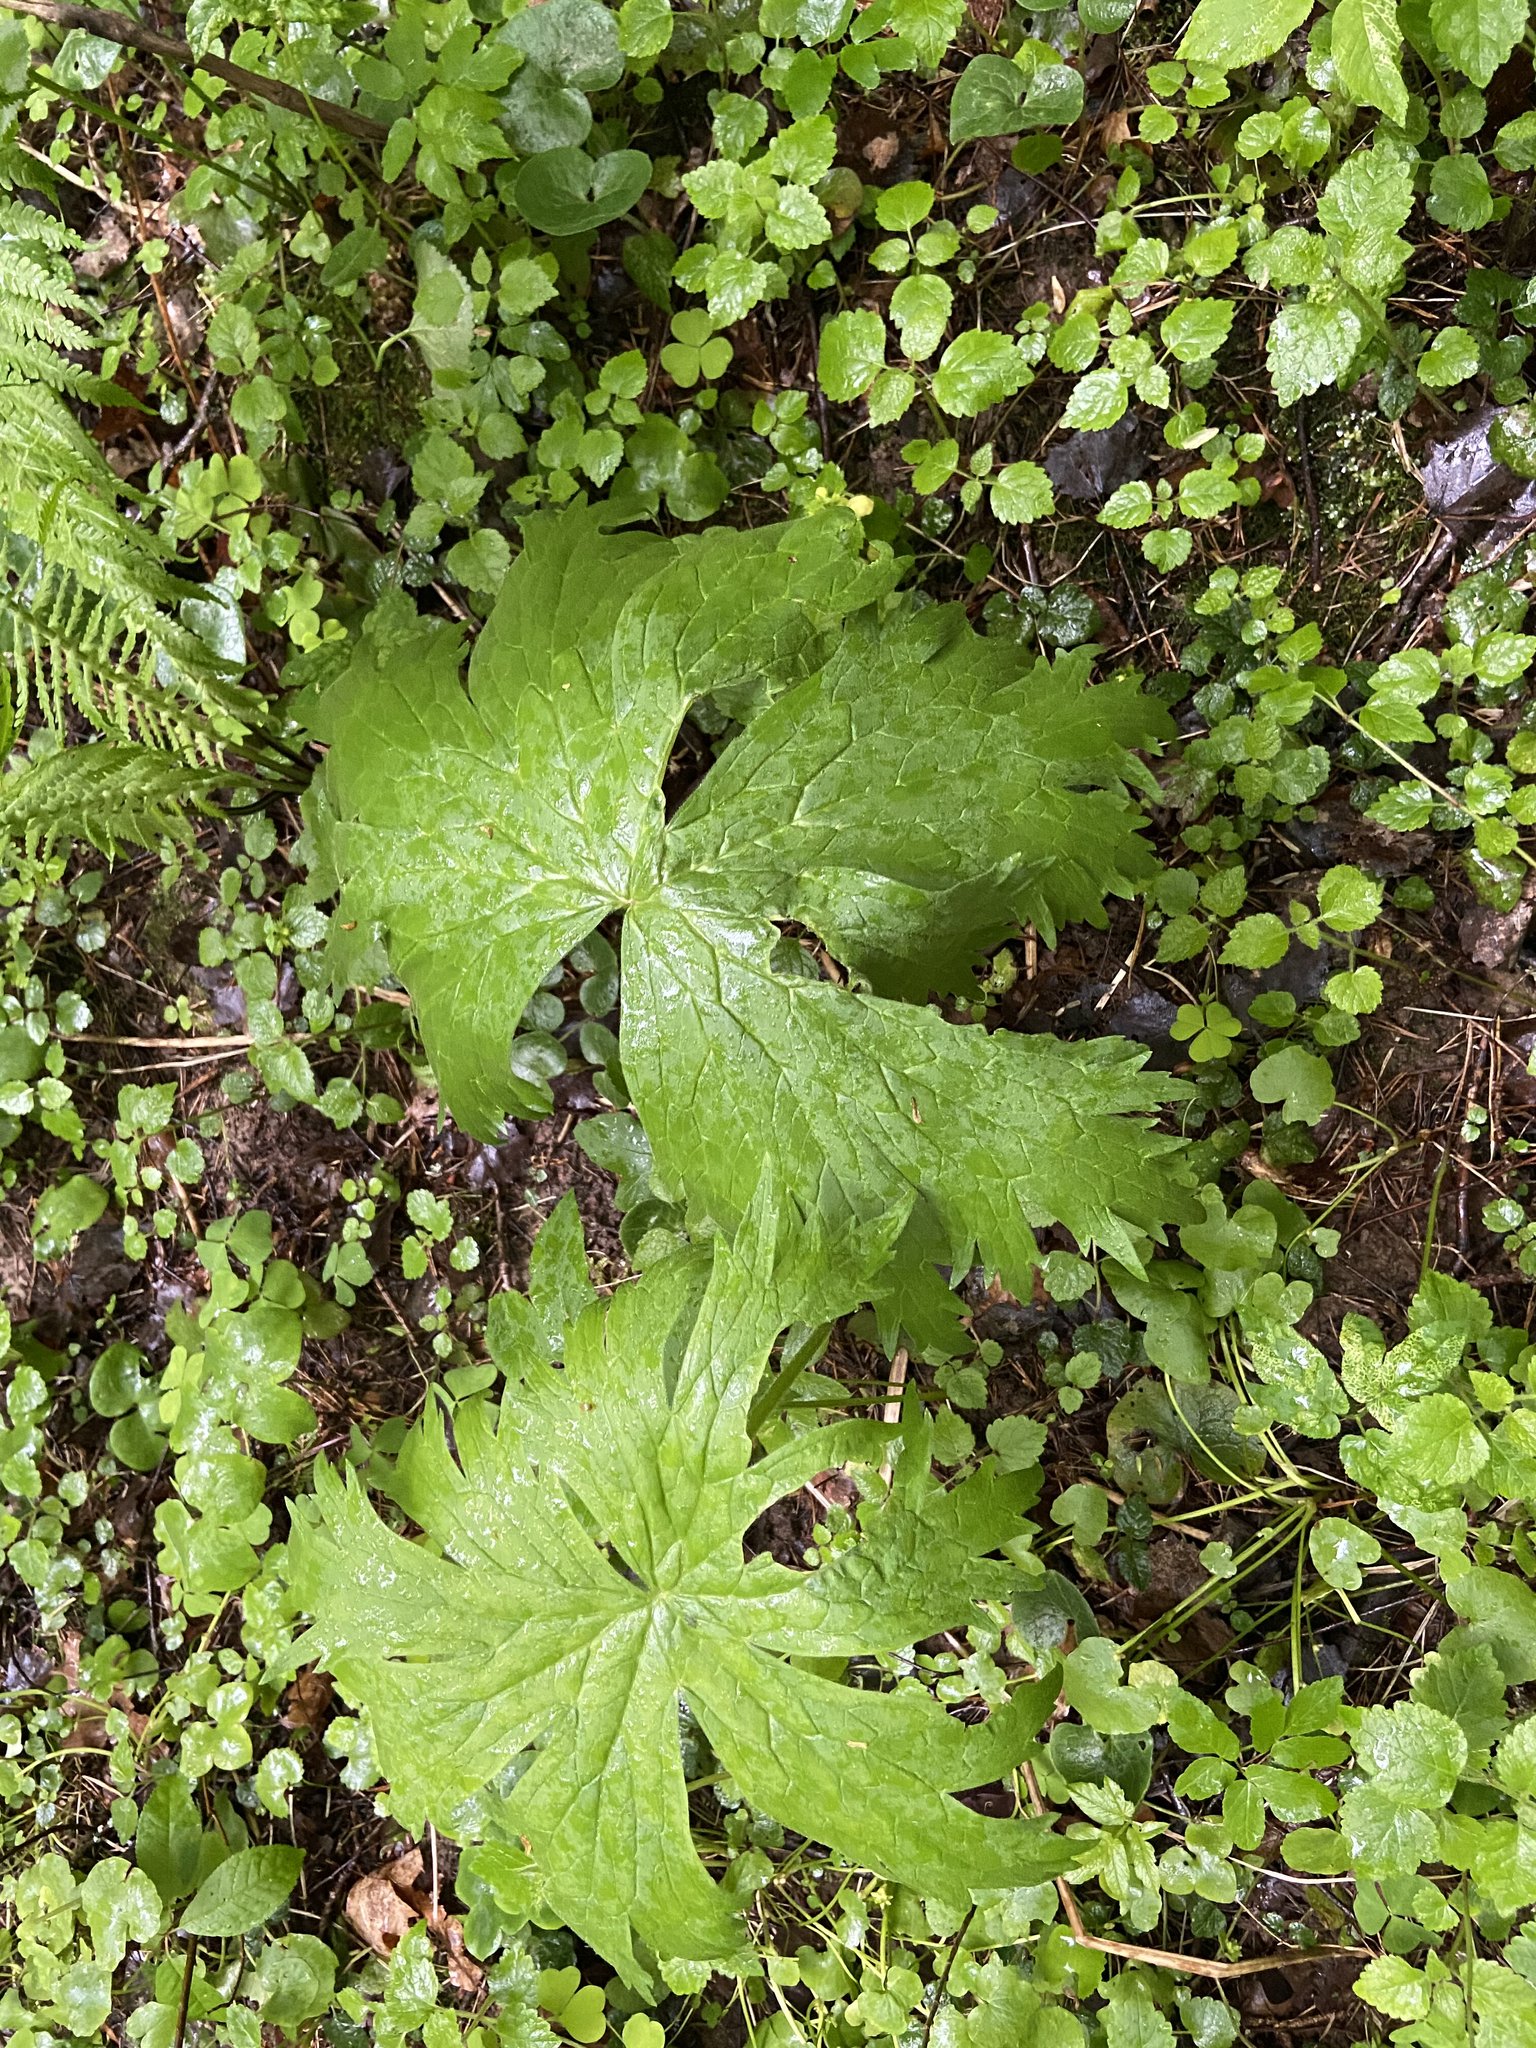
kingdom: Plantae
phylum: Tracheophyta
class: Magnoliopsida
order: Ranunculales
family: Ranunculaceae
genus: Aconitum
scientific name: Aconitum septentrionale
